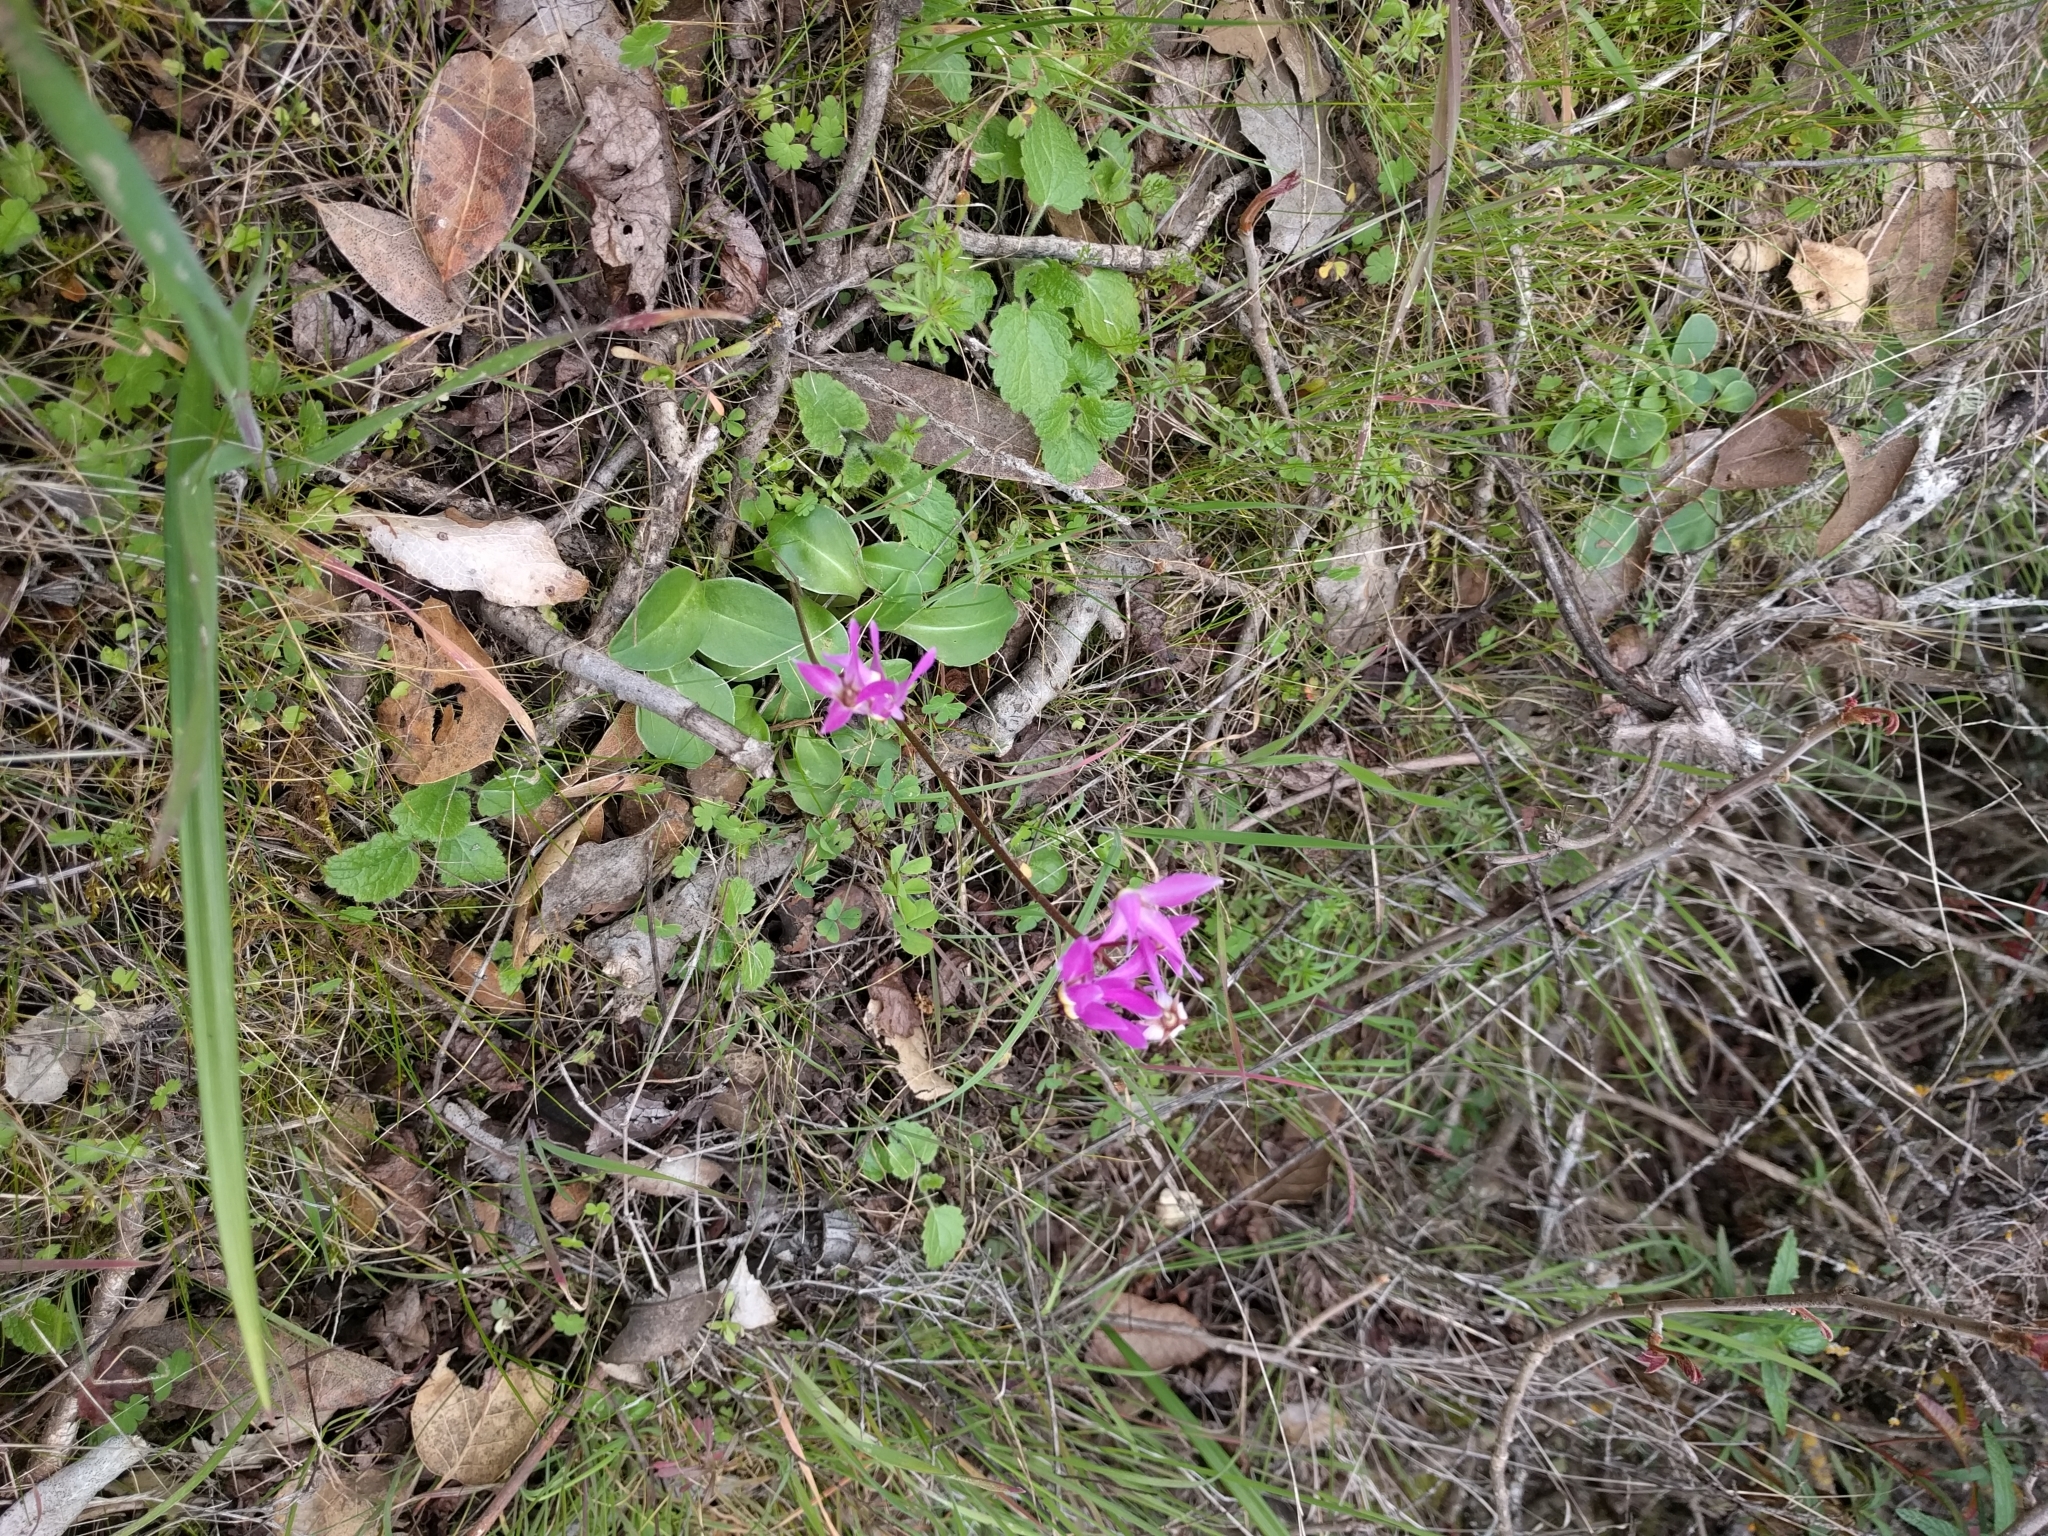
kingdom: Plantae
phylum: Tracheophyta
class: Magnoliopsida
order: Ericales
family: Primulaceae
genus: Dodecatheon
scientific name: Dodecatheon hendersonii
